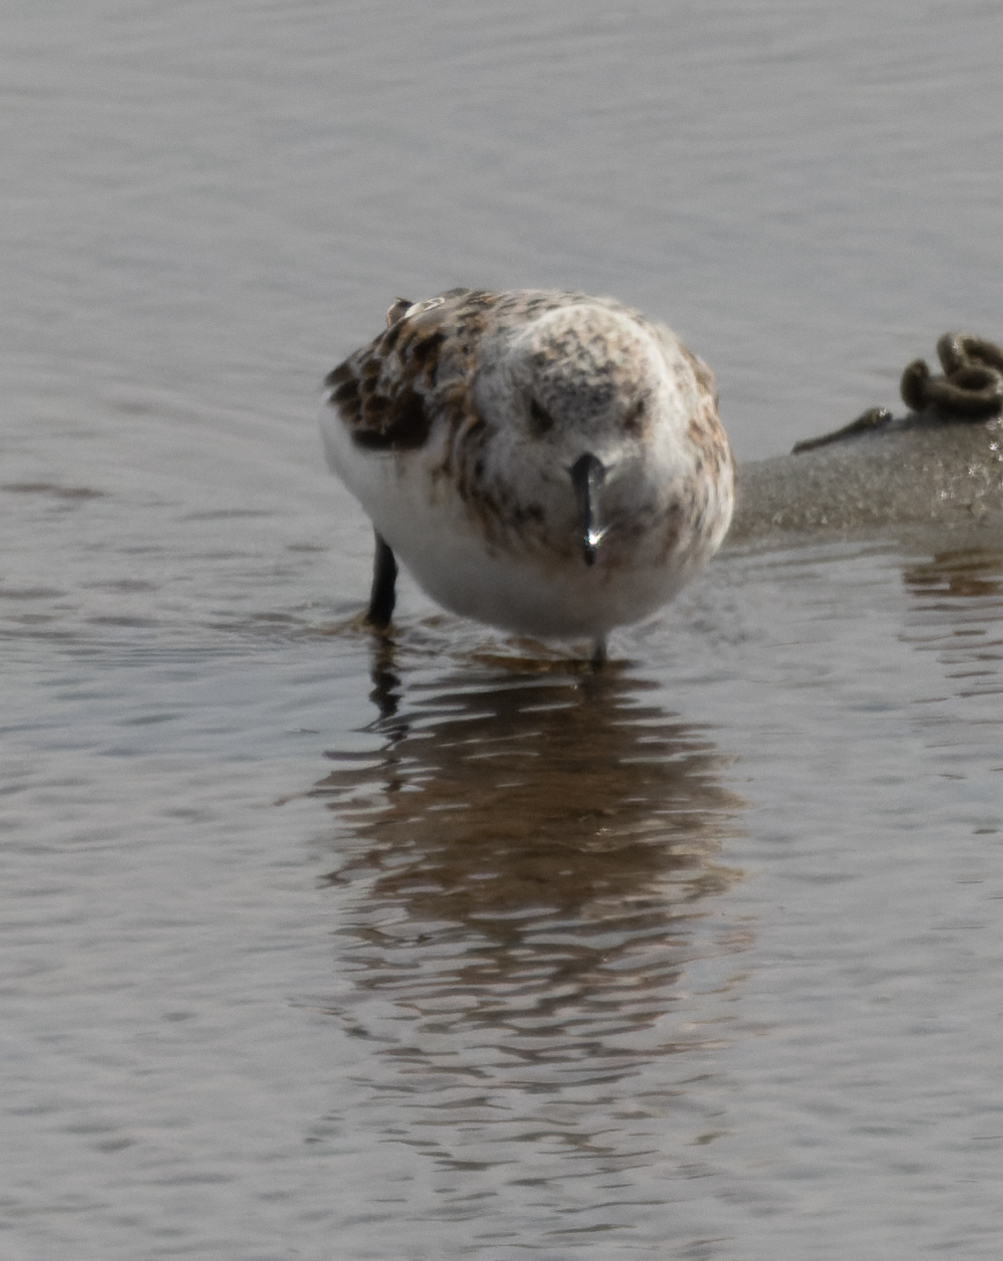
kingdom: Animalia
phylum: Chordata
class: Aves
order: Charadriiformes
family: Scolopacidae
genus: Calidris
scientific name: Calidris alba
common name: Sanderling
